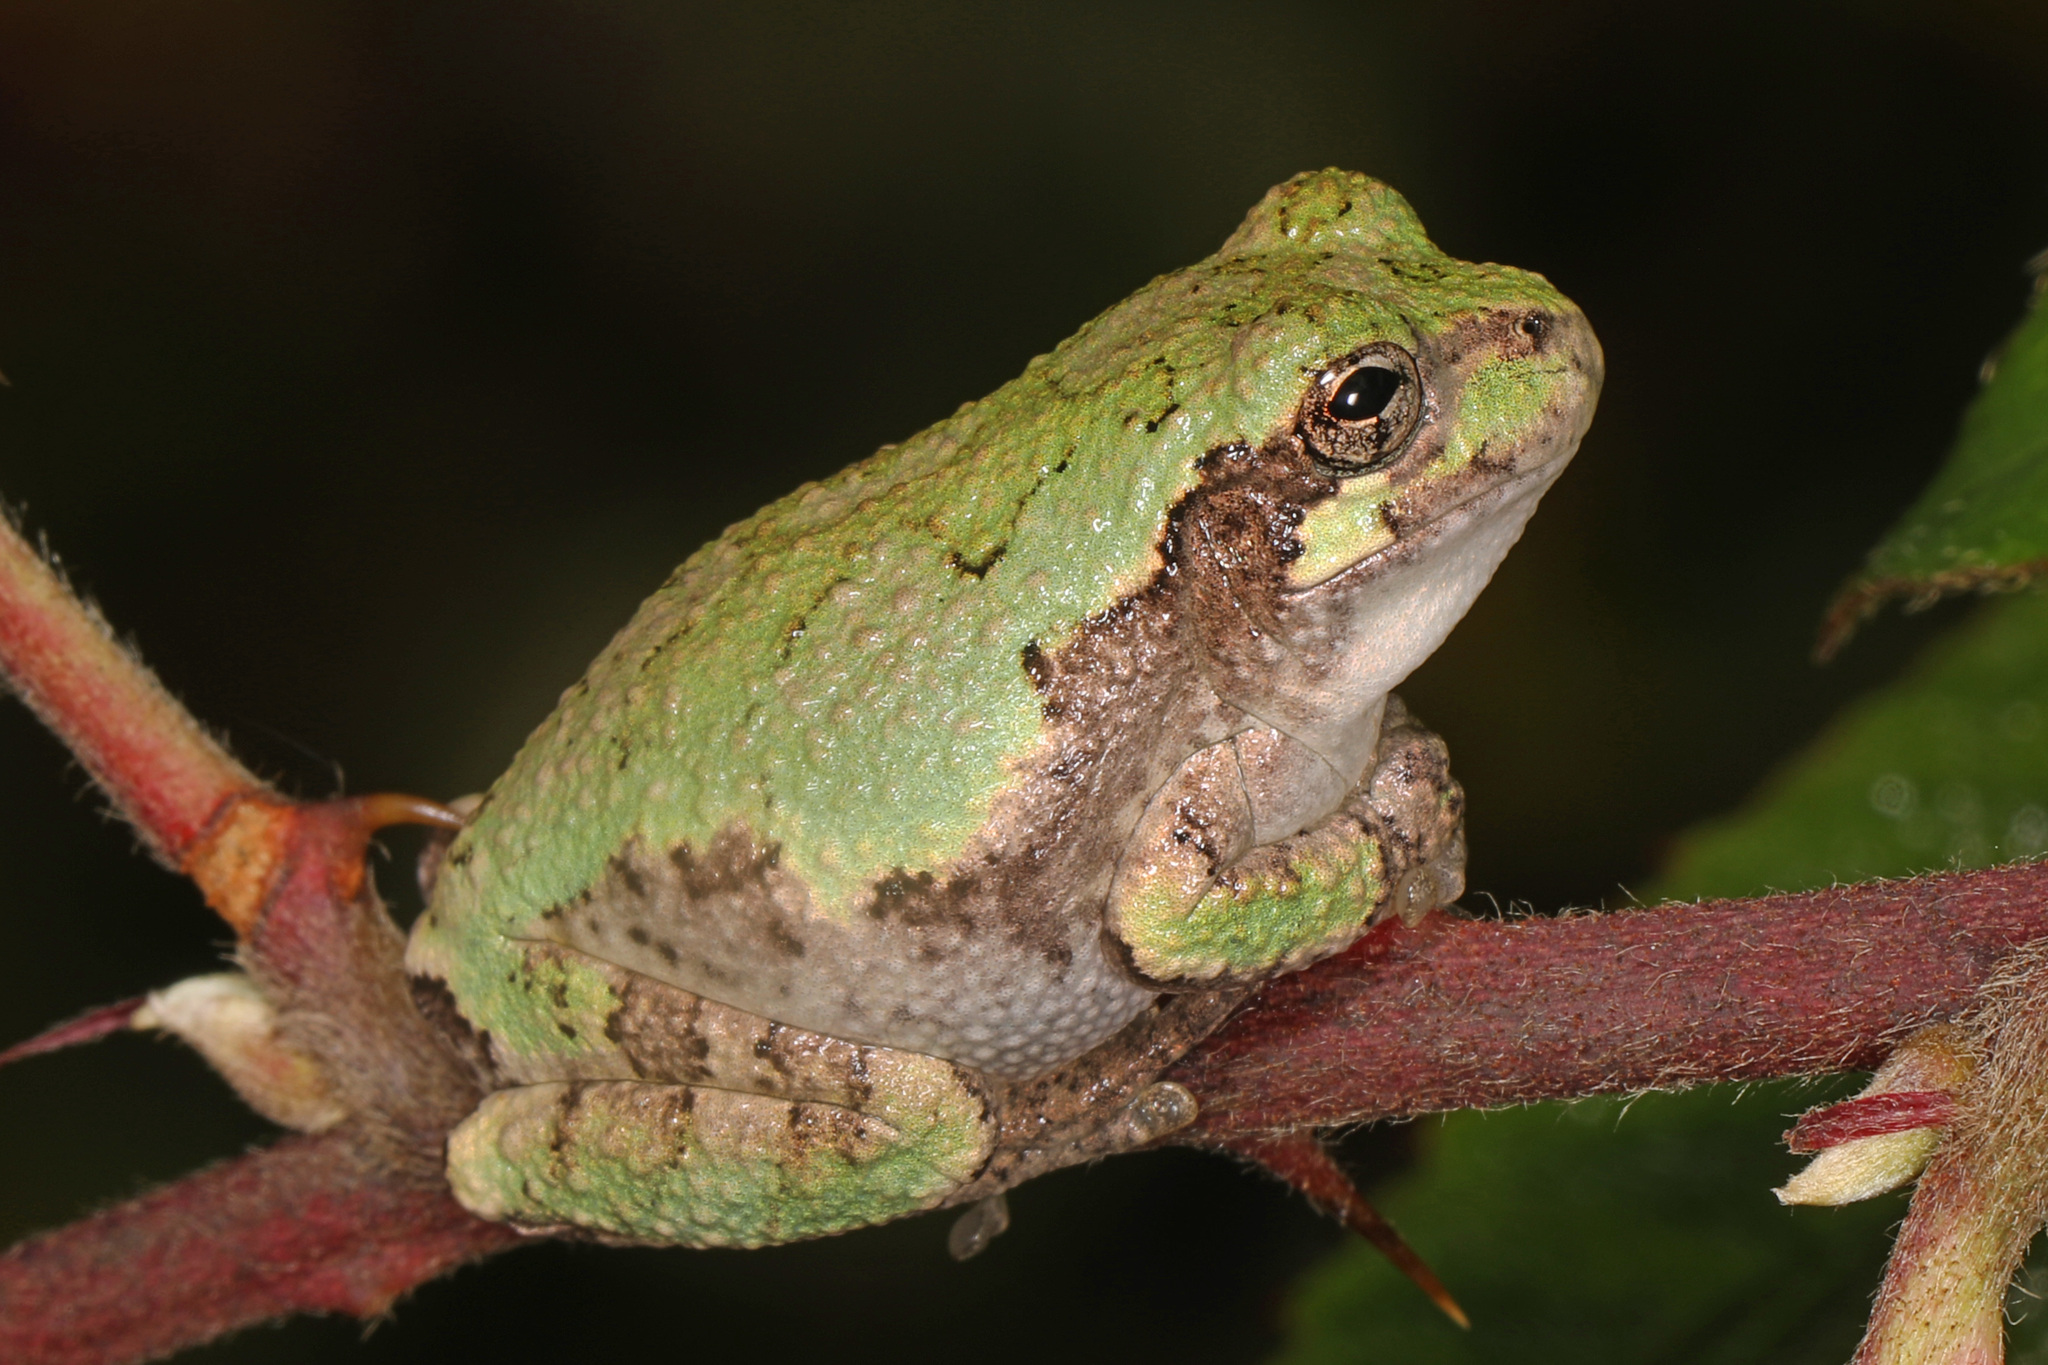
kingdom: Animalia
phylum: Chordata
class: Amphibia
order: Anura
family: Hylidae
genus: Hyla
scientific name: Hyla
